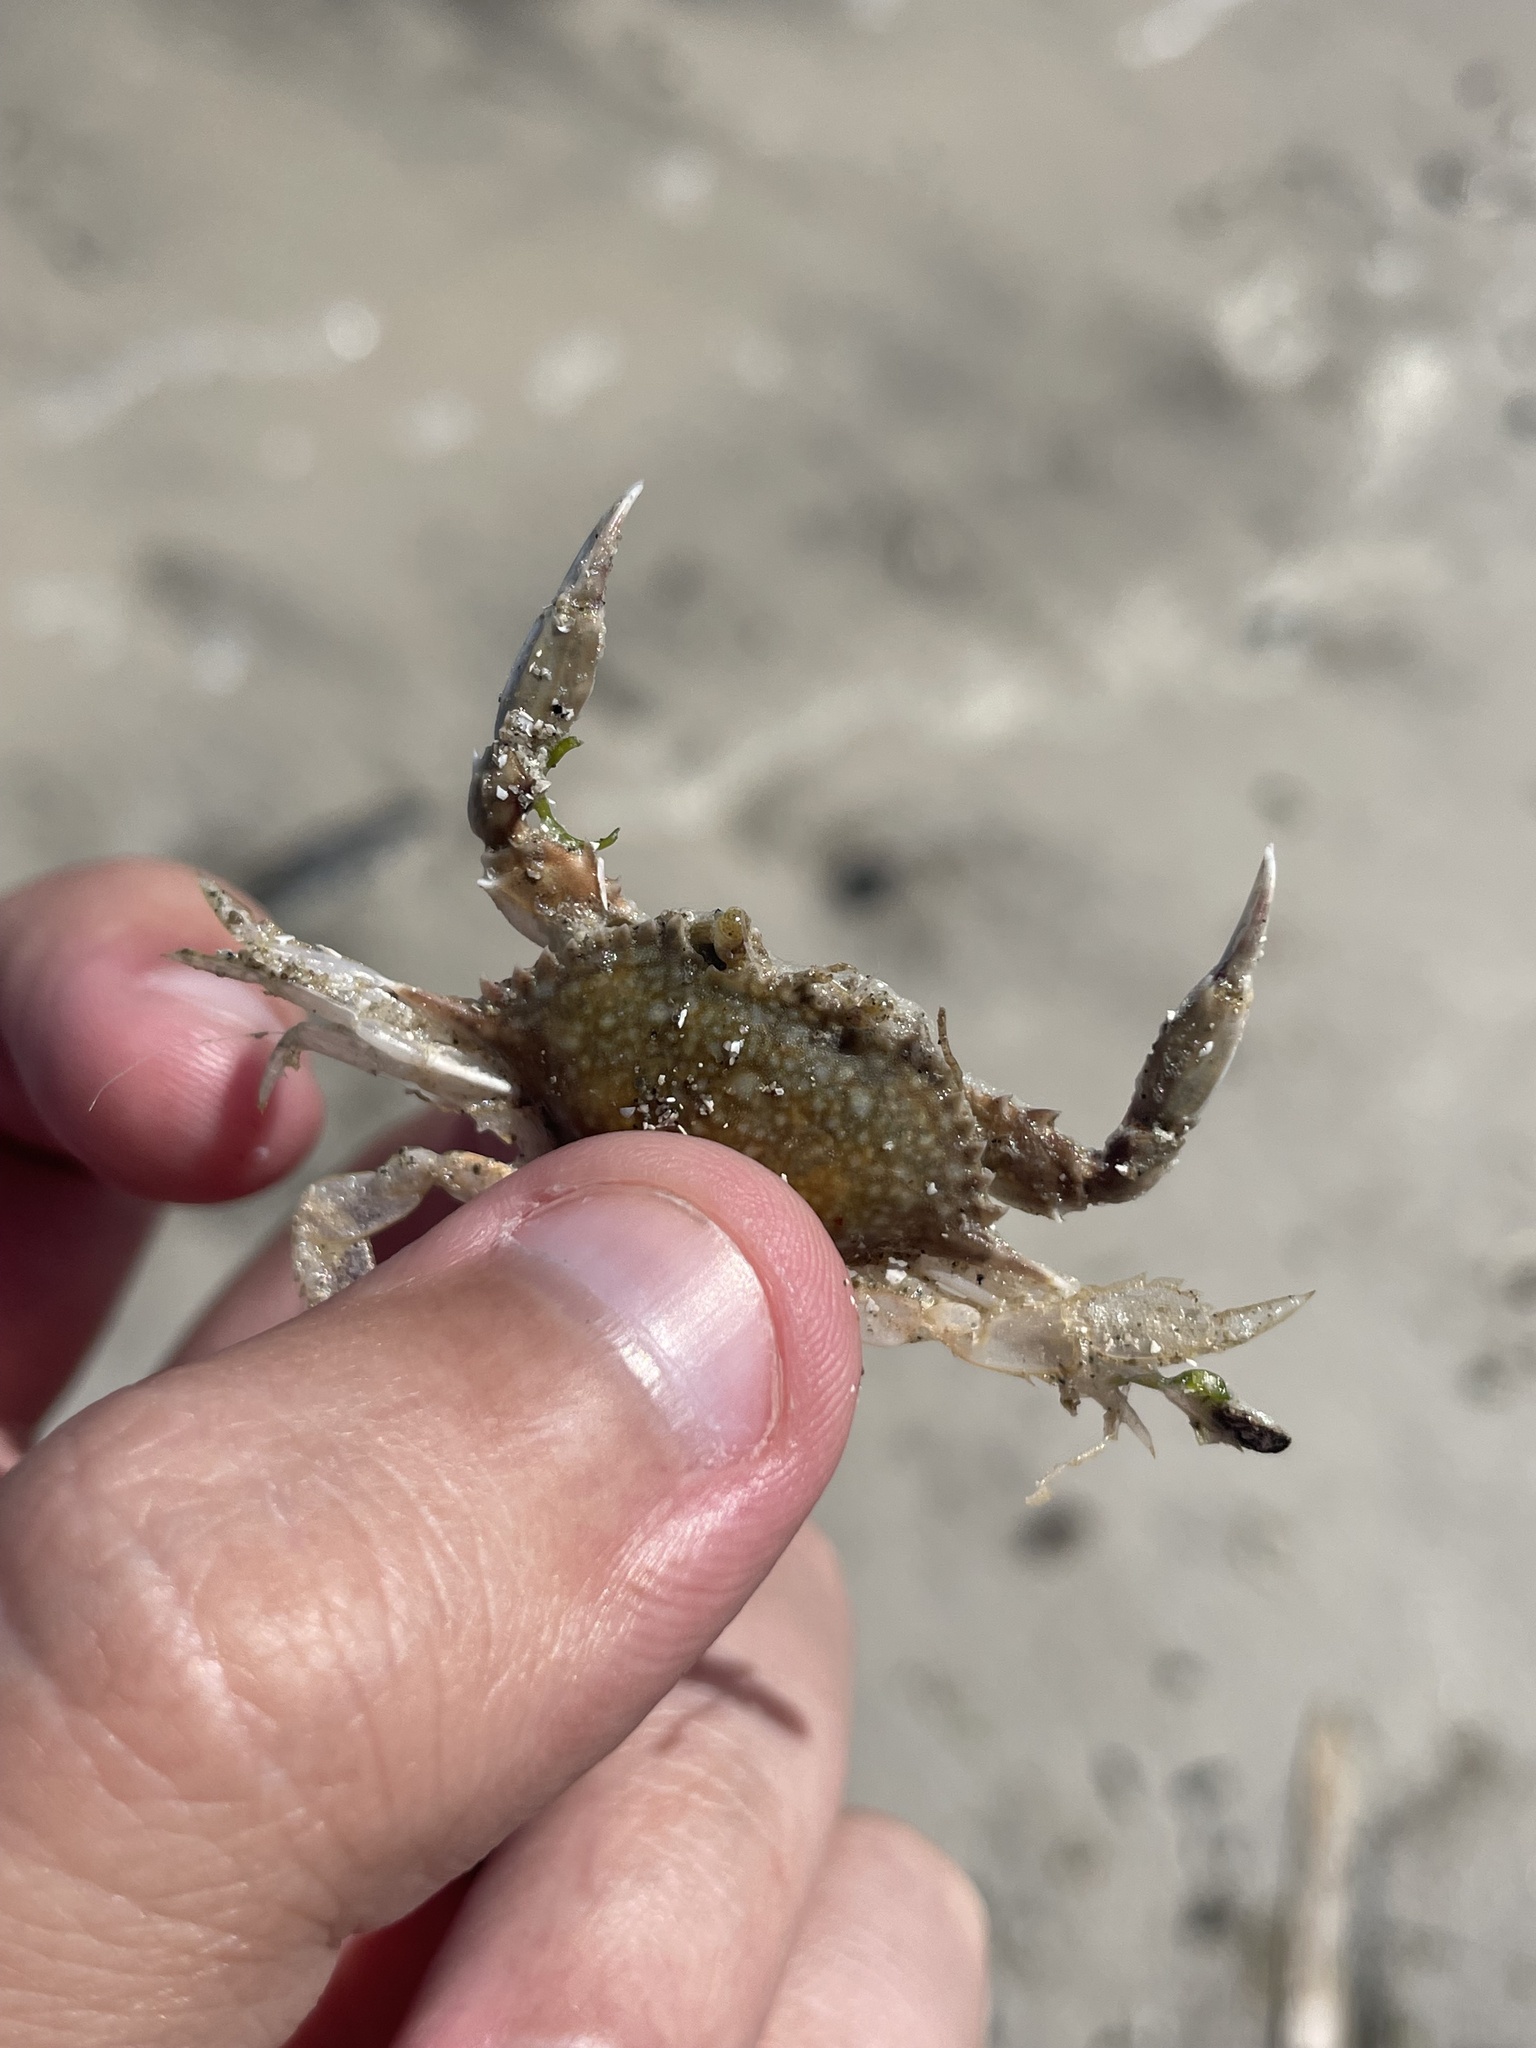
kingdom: Animalia
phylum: Arthropoda
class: Malacostraca
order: Decapoda
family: Portunidae
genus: Arenaeus
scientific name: Arenaeus cribrarius
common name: Speckled crab
